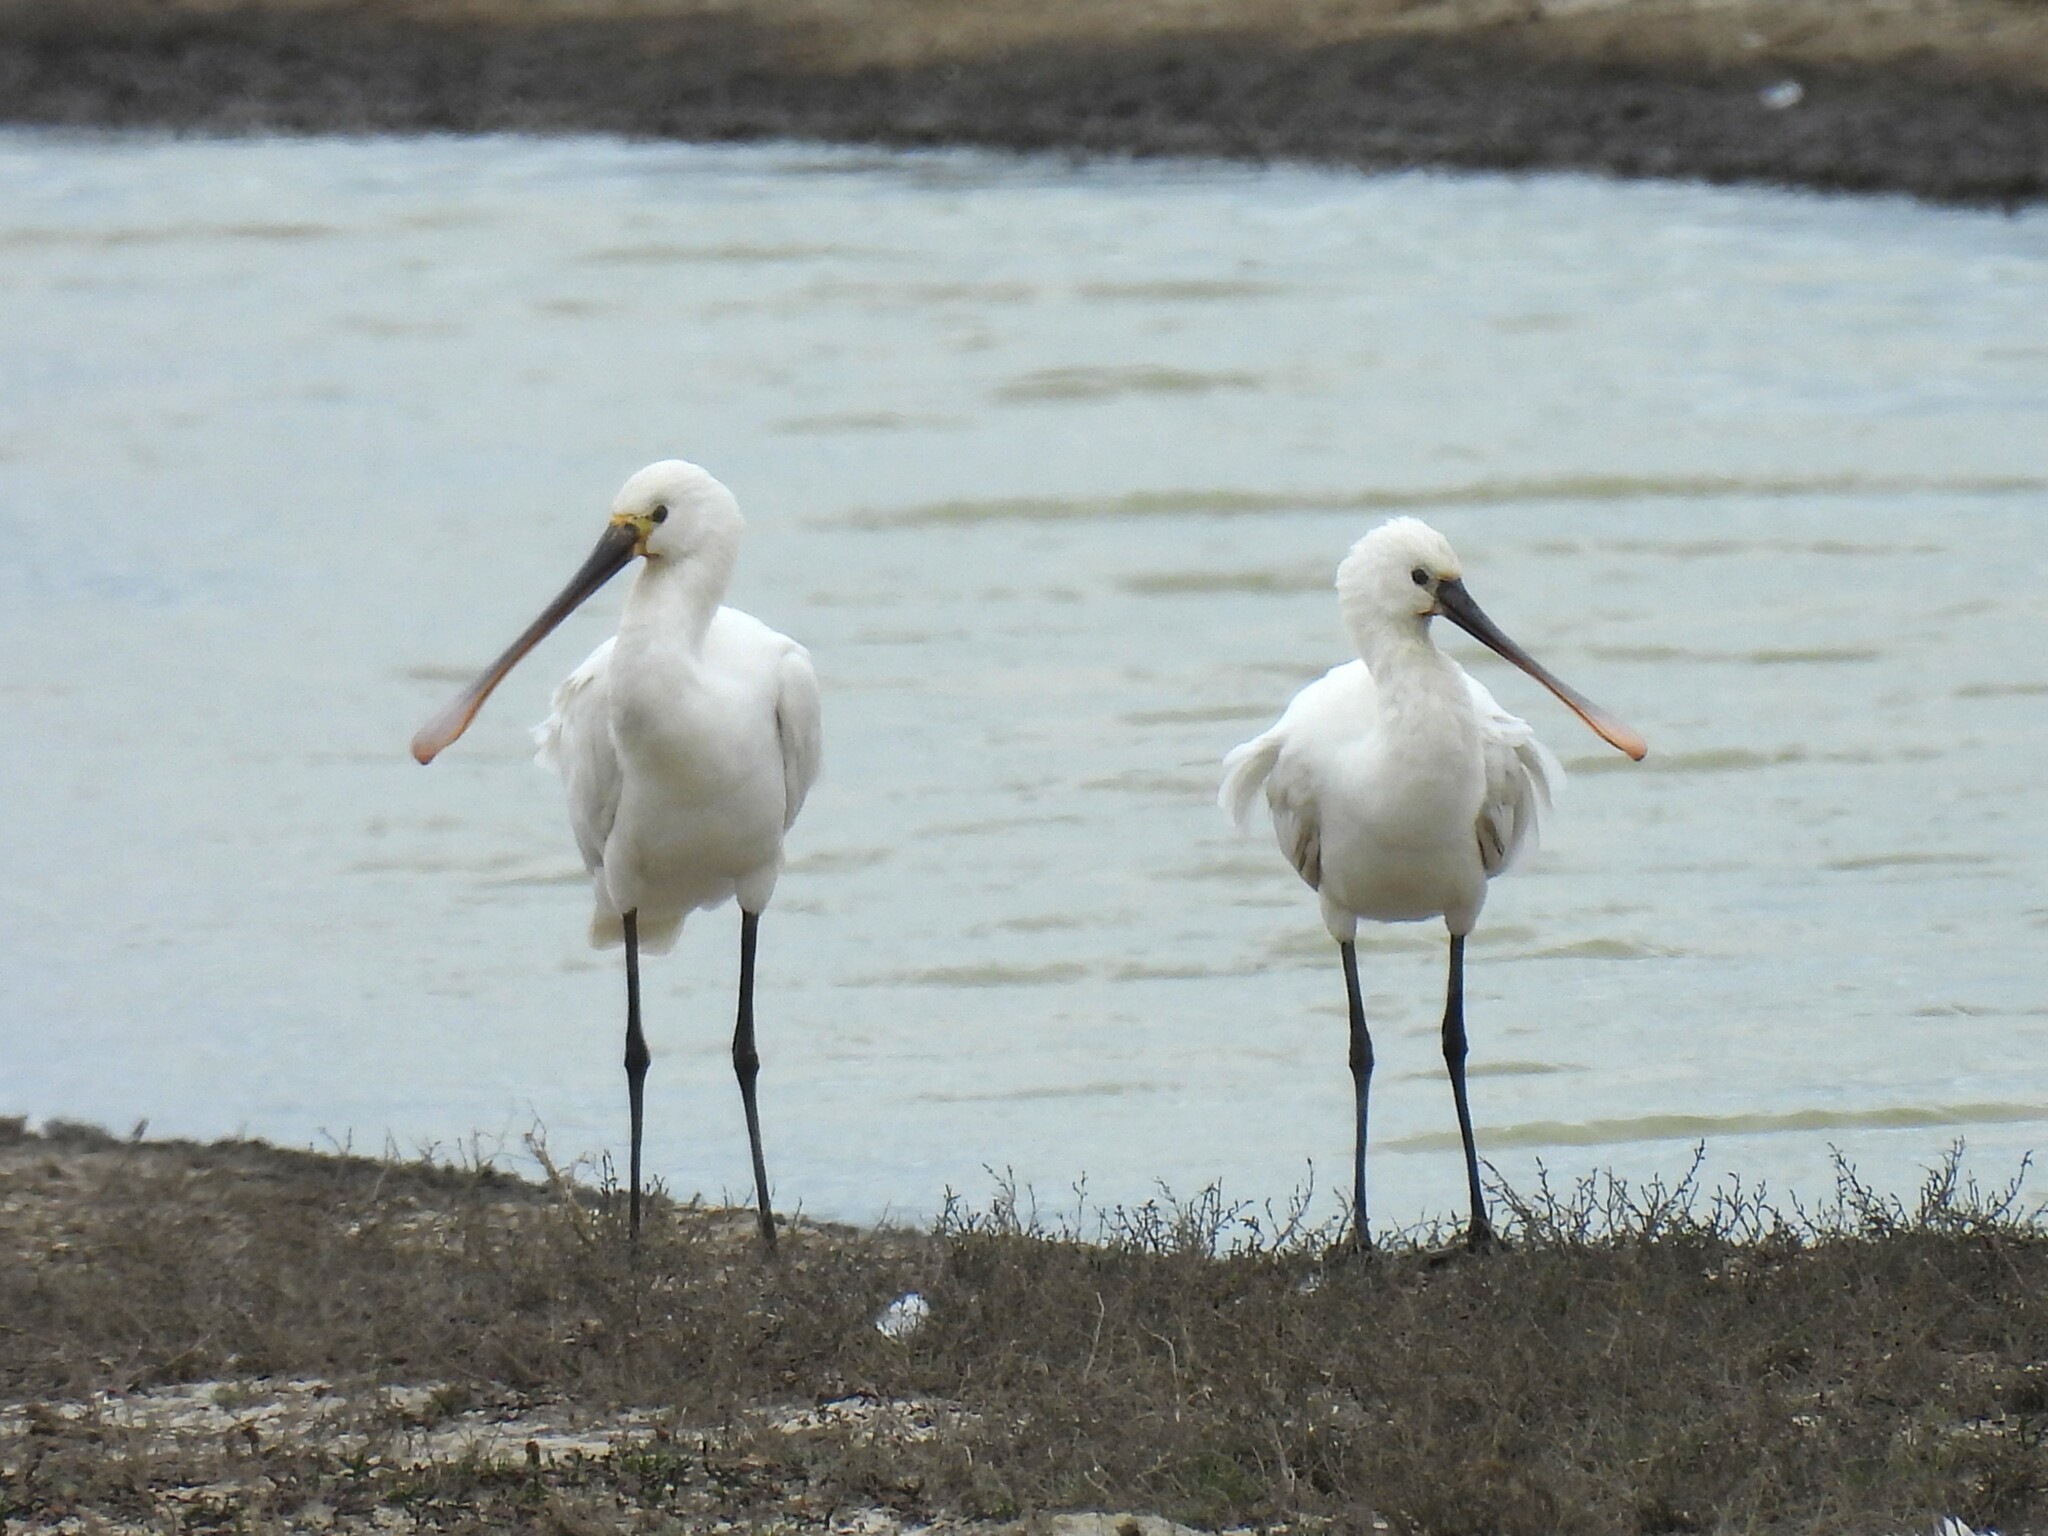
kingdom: Animalia
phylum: Chordata
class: Aves
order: Pelecaniformes
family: Threskiornithidae
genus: Platalea
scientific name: Platalea leucorodia
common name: Eurasian spoonbill
